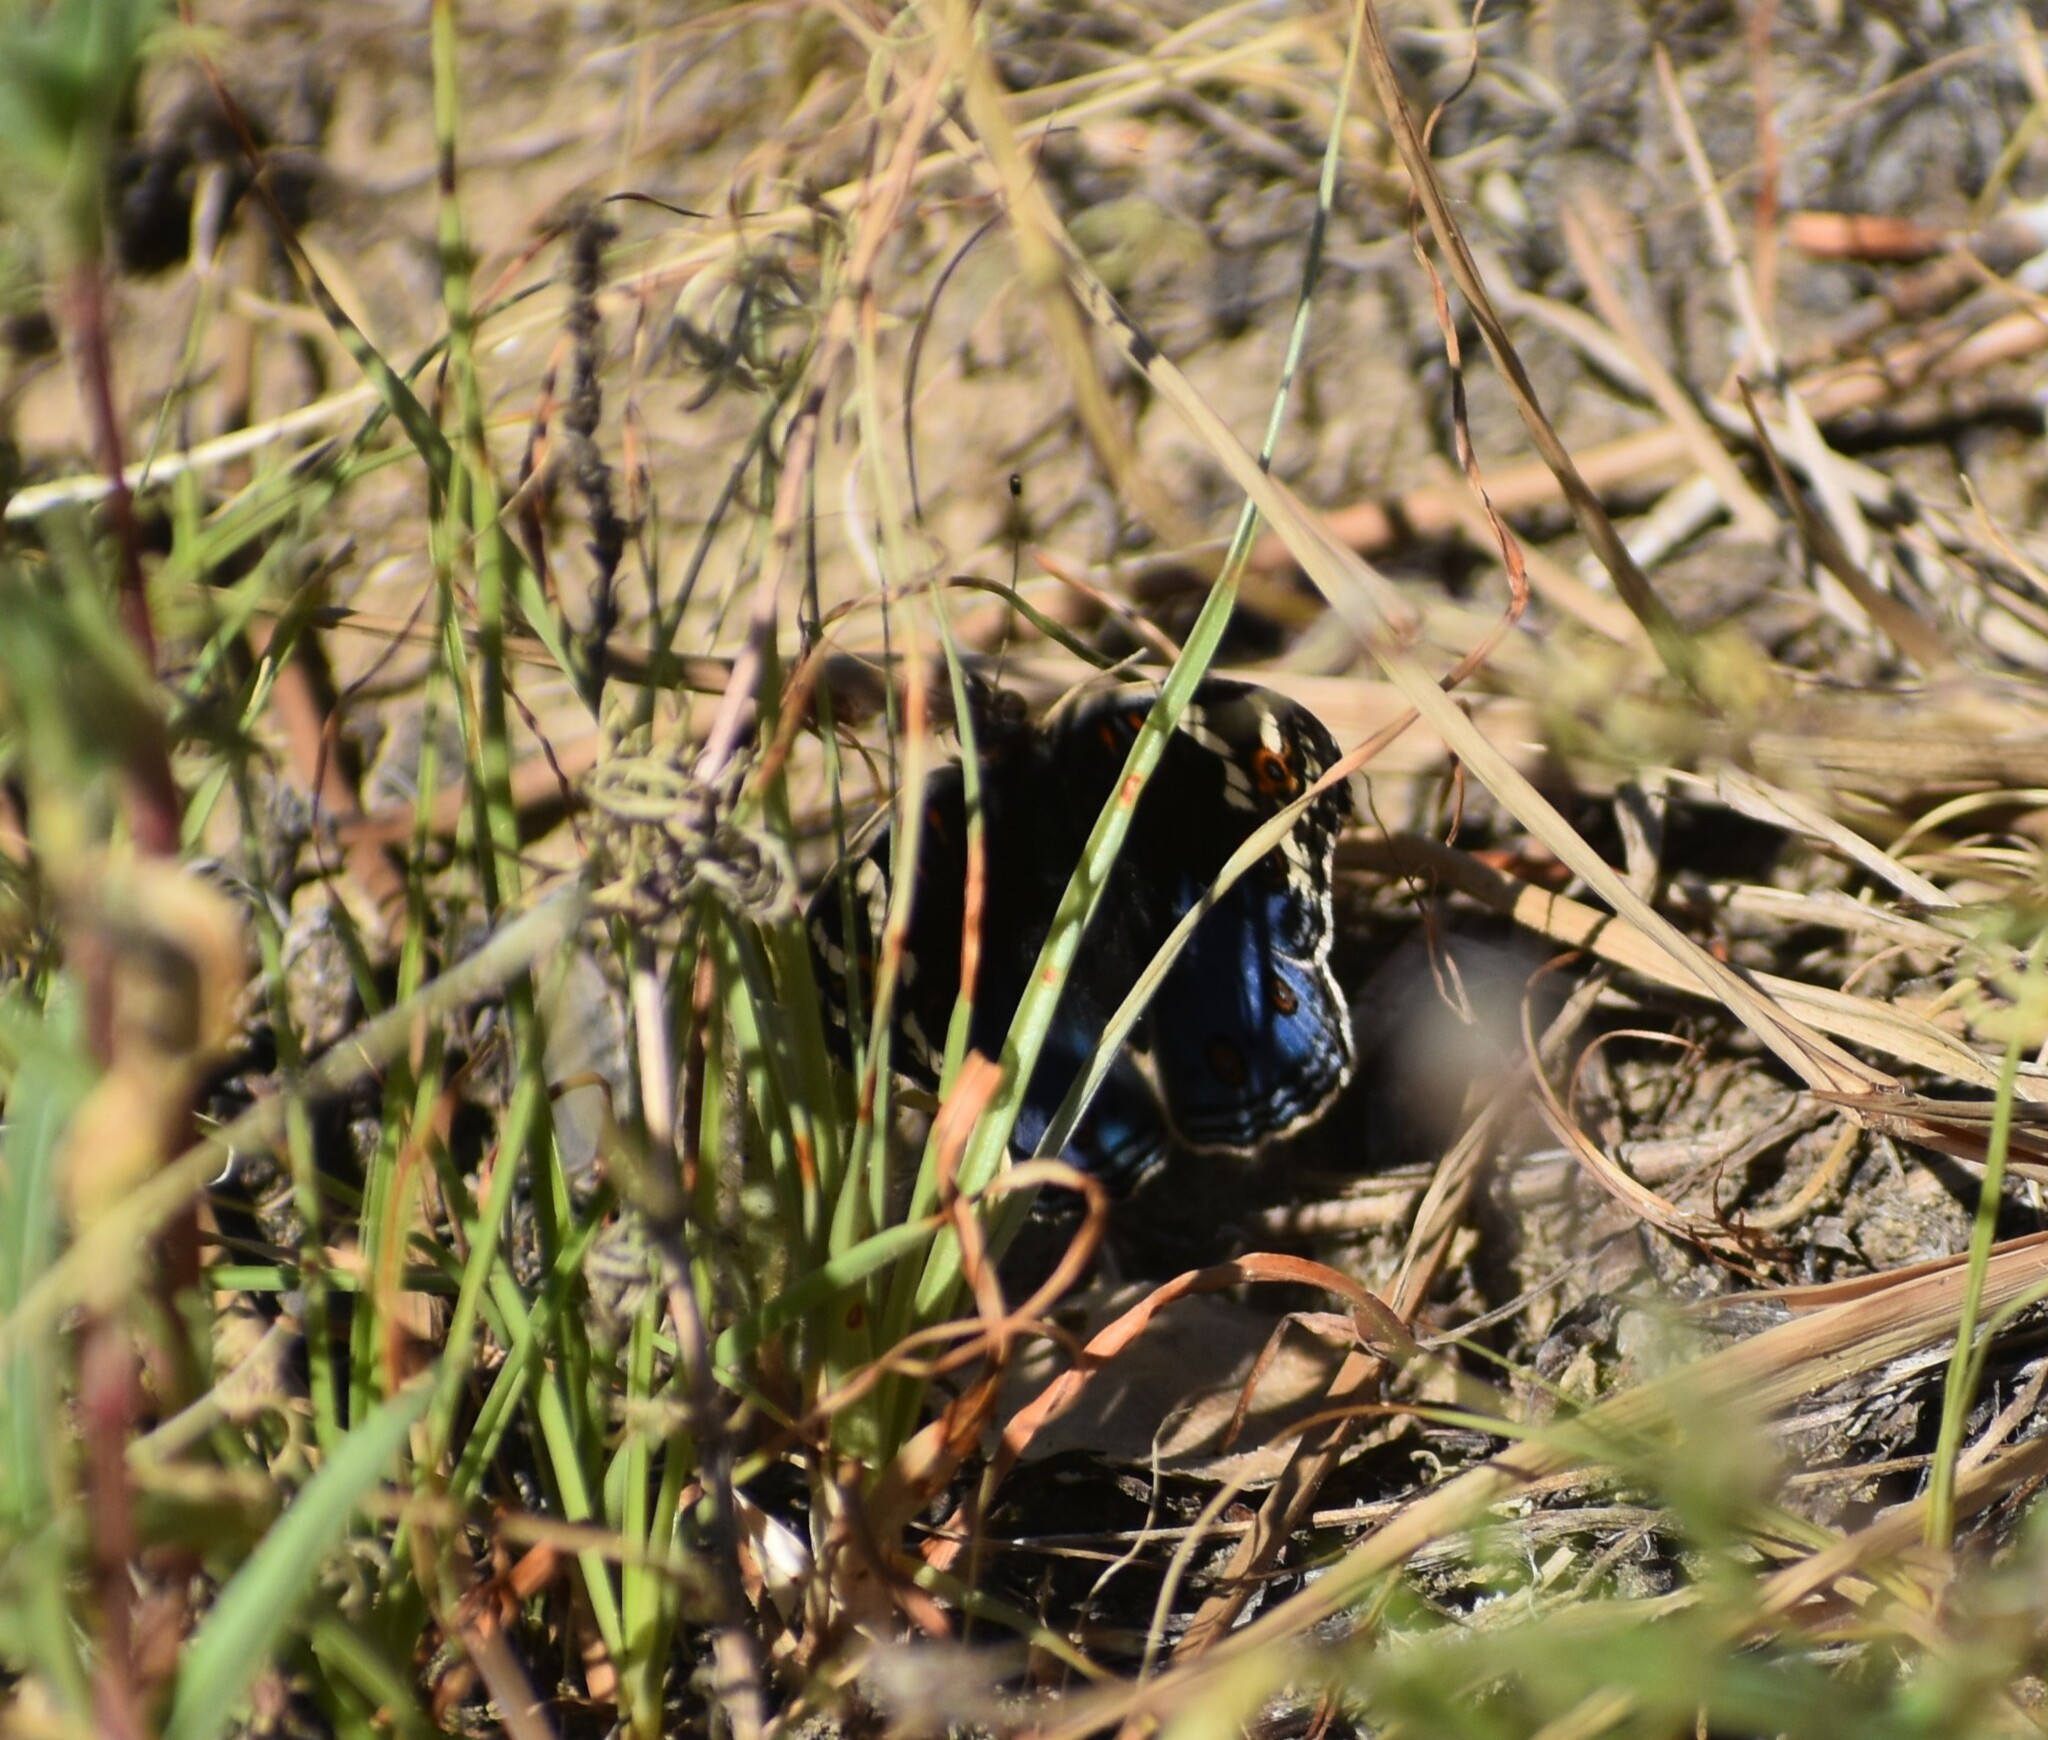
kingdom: Animalia
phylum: Arthropoda
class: Insecta
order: Lepidoptera
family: Nymphalidae
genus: Junonia
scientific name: Junonia orithya
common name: Blue pansy
